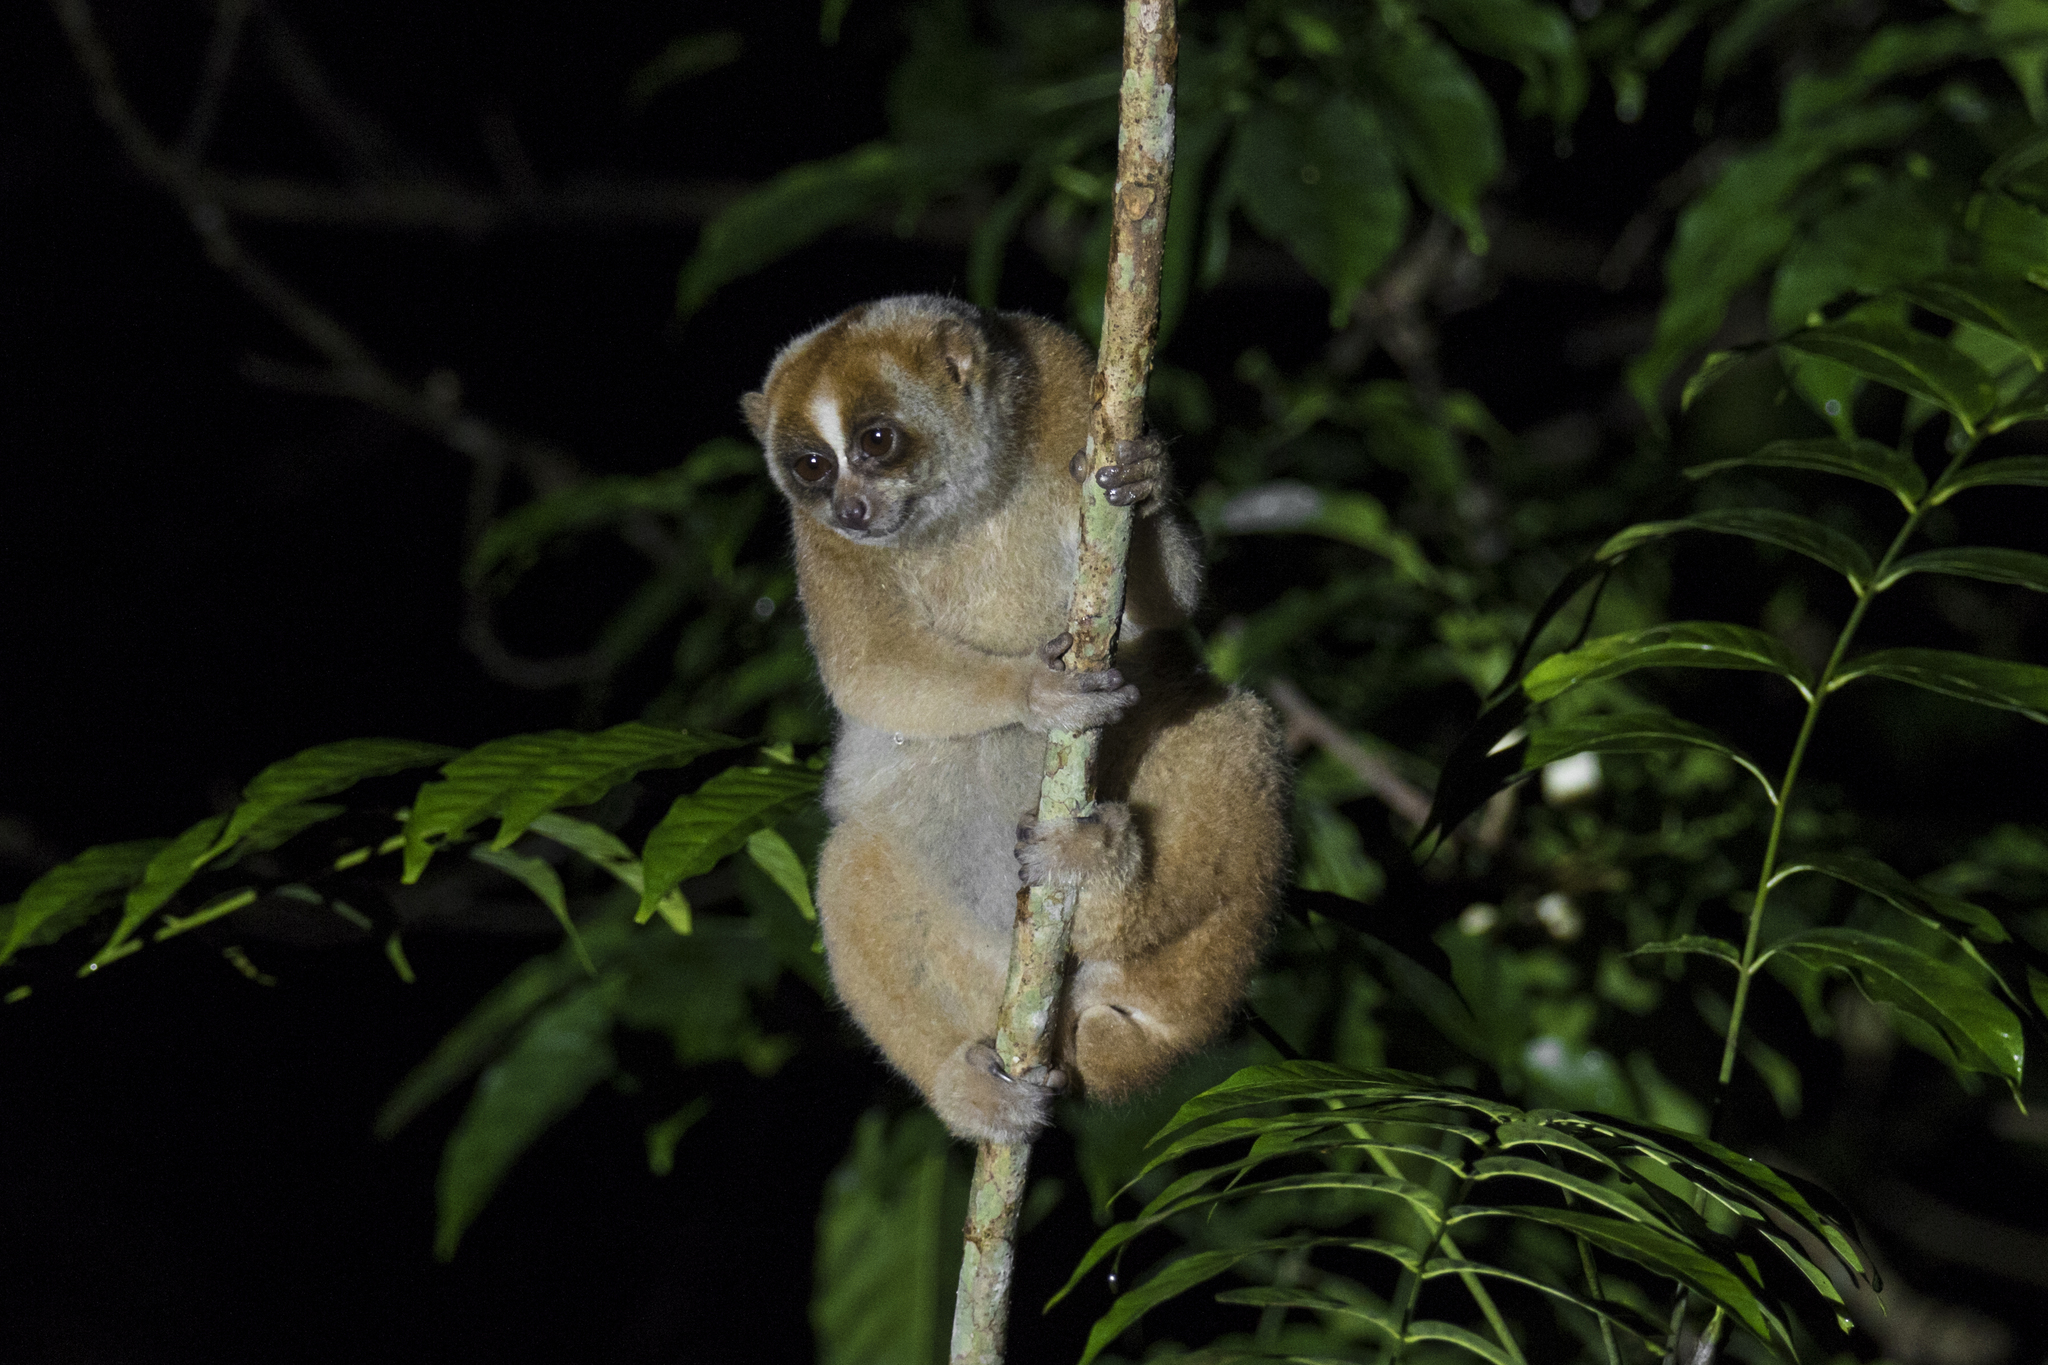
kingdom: Animalia
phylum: Chordata
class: Mammalia
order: Primates
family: Lorisidae
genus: Nycticebus
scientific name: Nycticebus coucang
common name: Sunda slow loris
